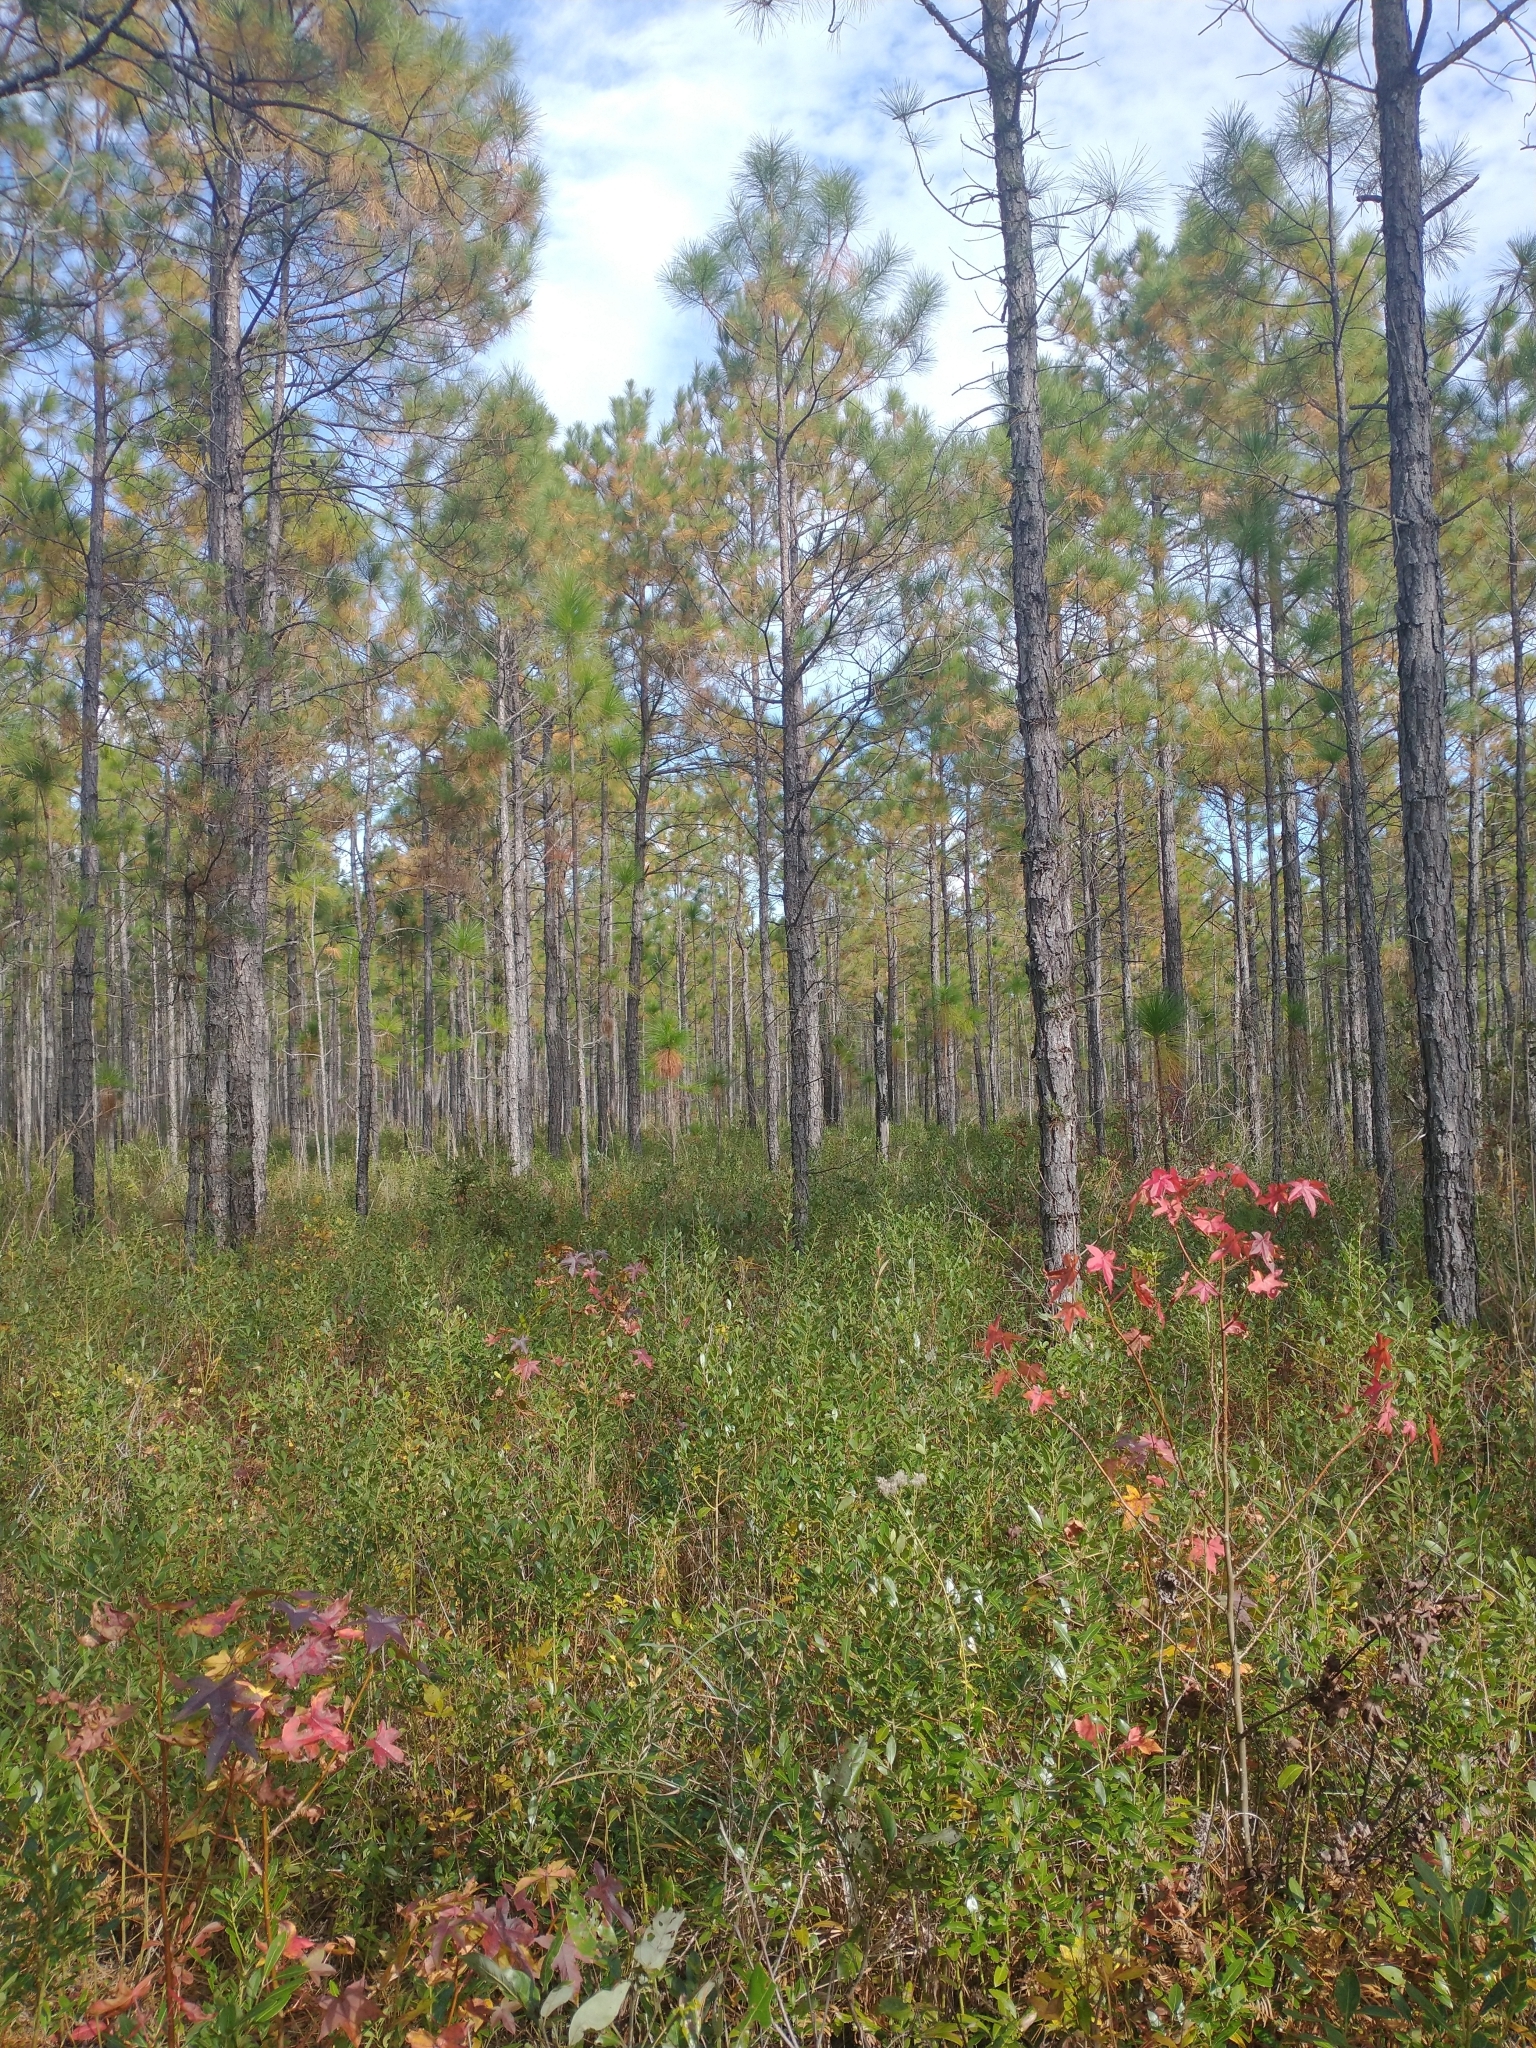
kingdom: Plantae
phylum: Tracheophyta
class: Magnoliopsida
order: Saxifragales
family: Altingiaceae
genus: Liquidambar
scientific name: Liquidambar styraciflua
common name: Sweet gum
